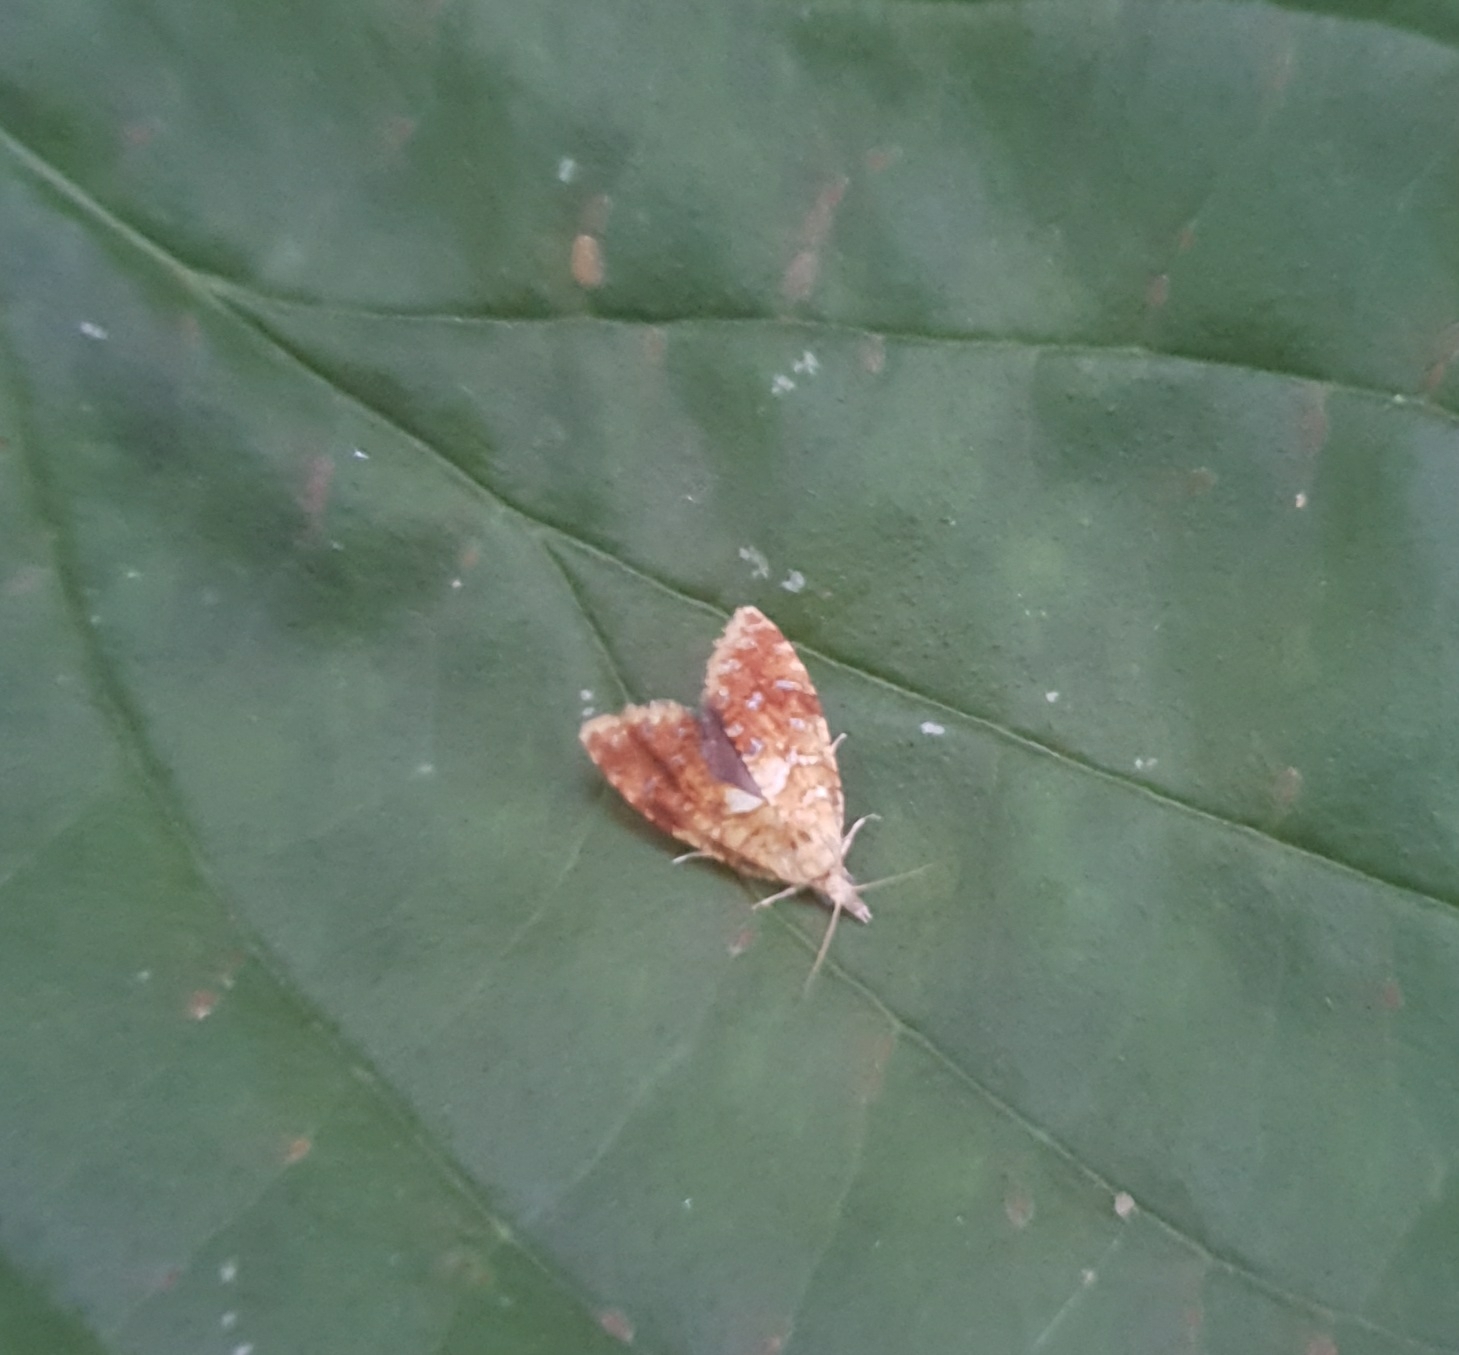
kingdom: Animalia
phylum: Arthropoda
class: Insecta
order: Lepidoptera
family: Tortricidae
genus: Pseudargyrotoza
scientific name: Pseudargyrotoza conwagana
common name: Yellow-spot twist
